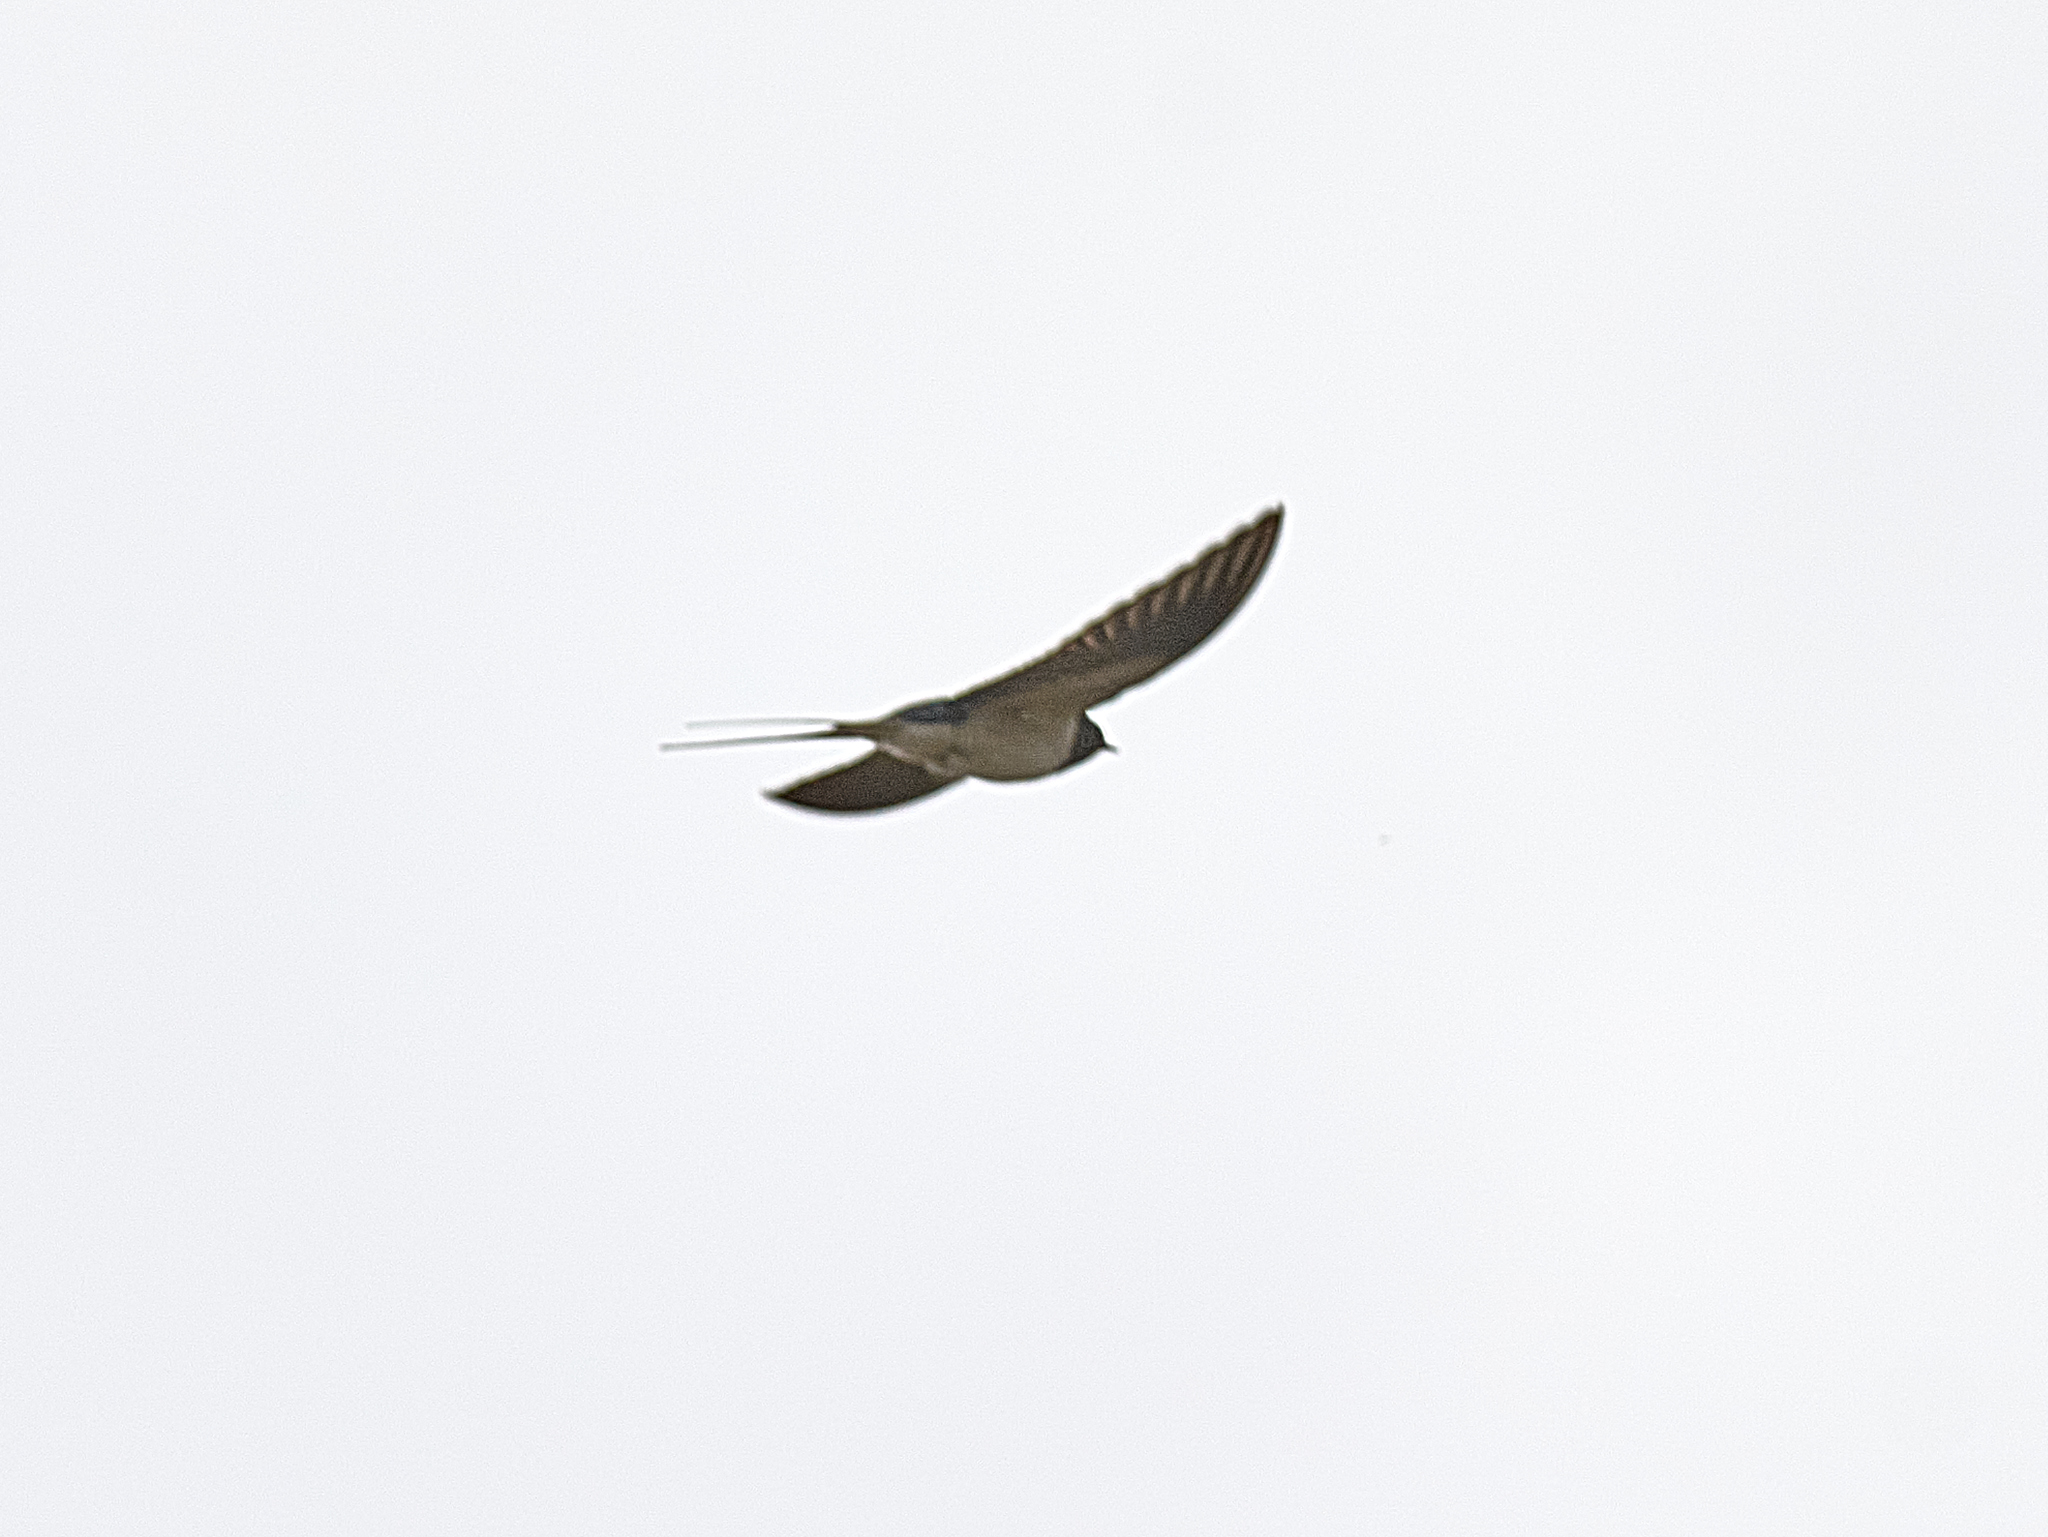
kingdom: Animalia
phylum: Chordata
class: Aves
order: Passeriformes
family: Hirundinidae
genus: Hirundo
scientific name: Hirundo rustica
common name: Barn swallow
